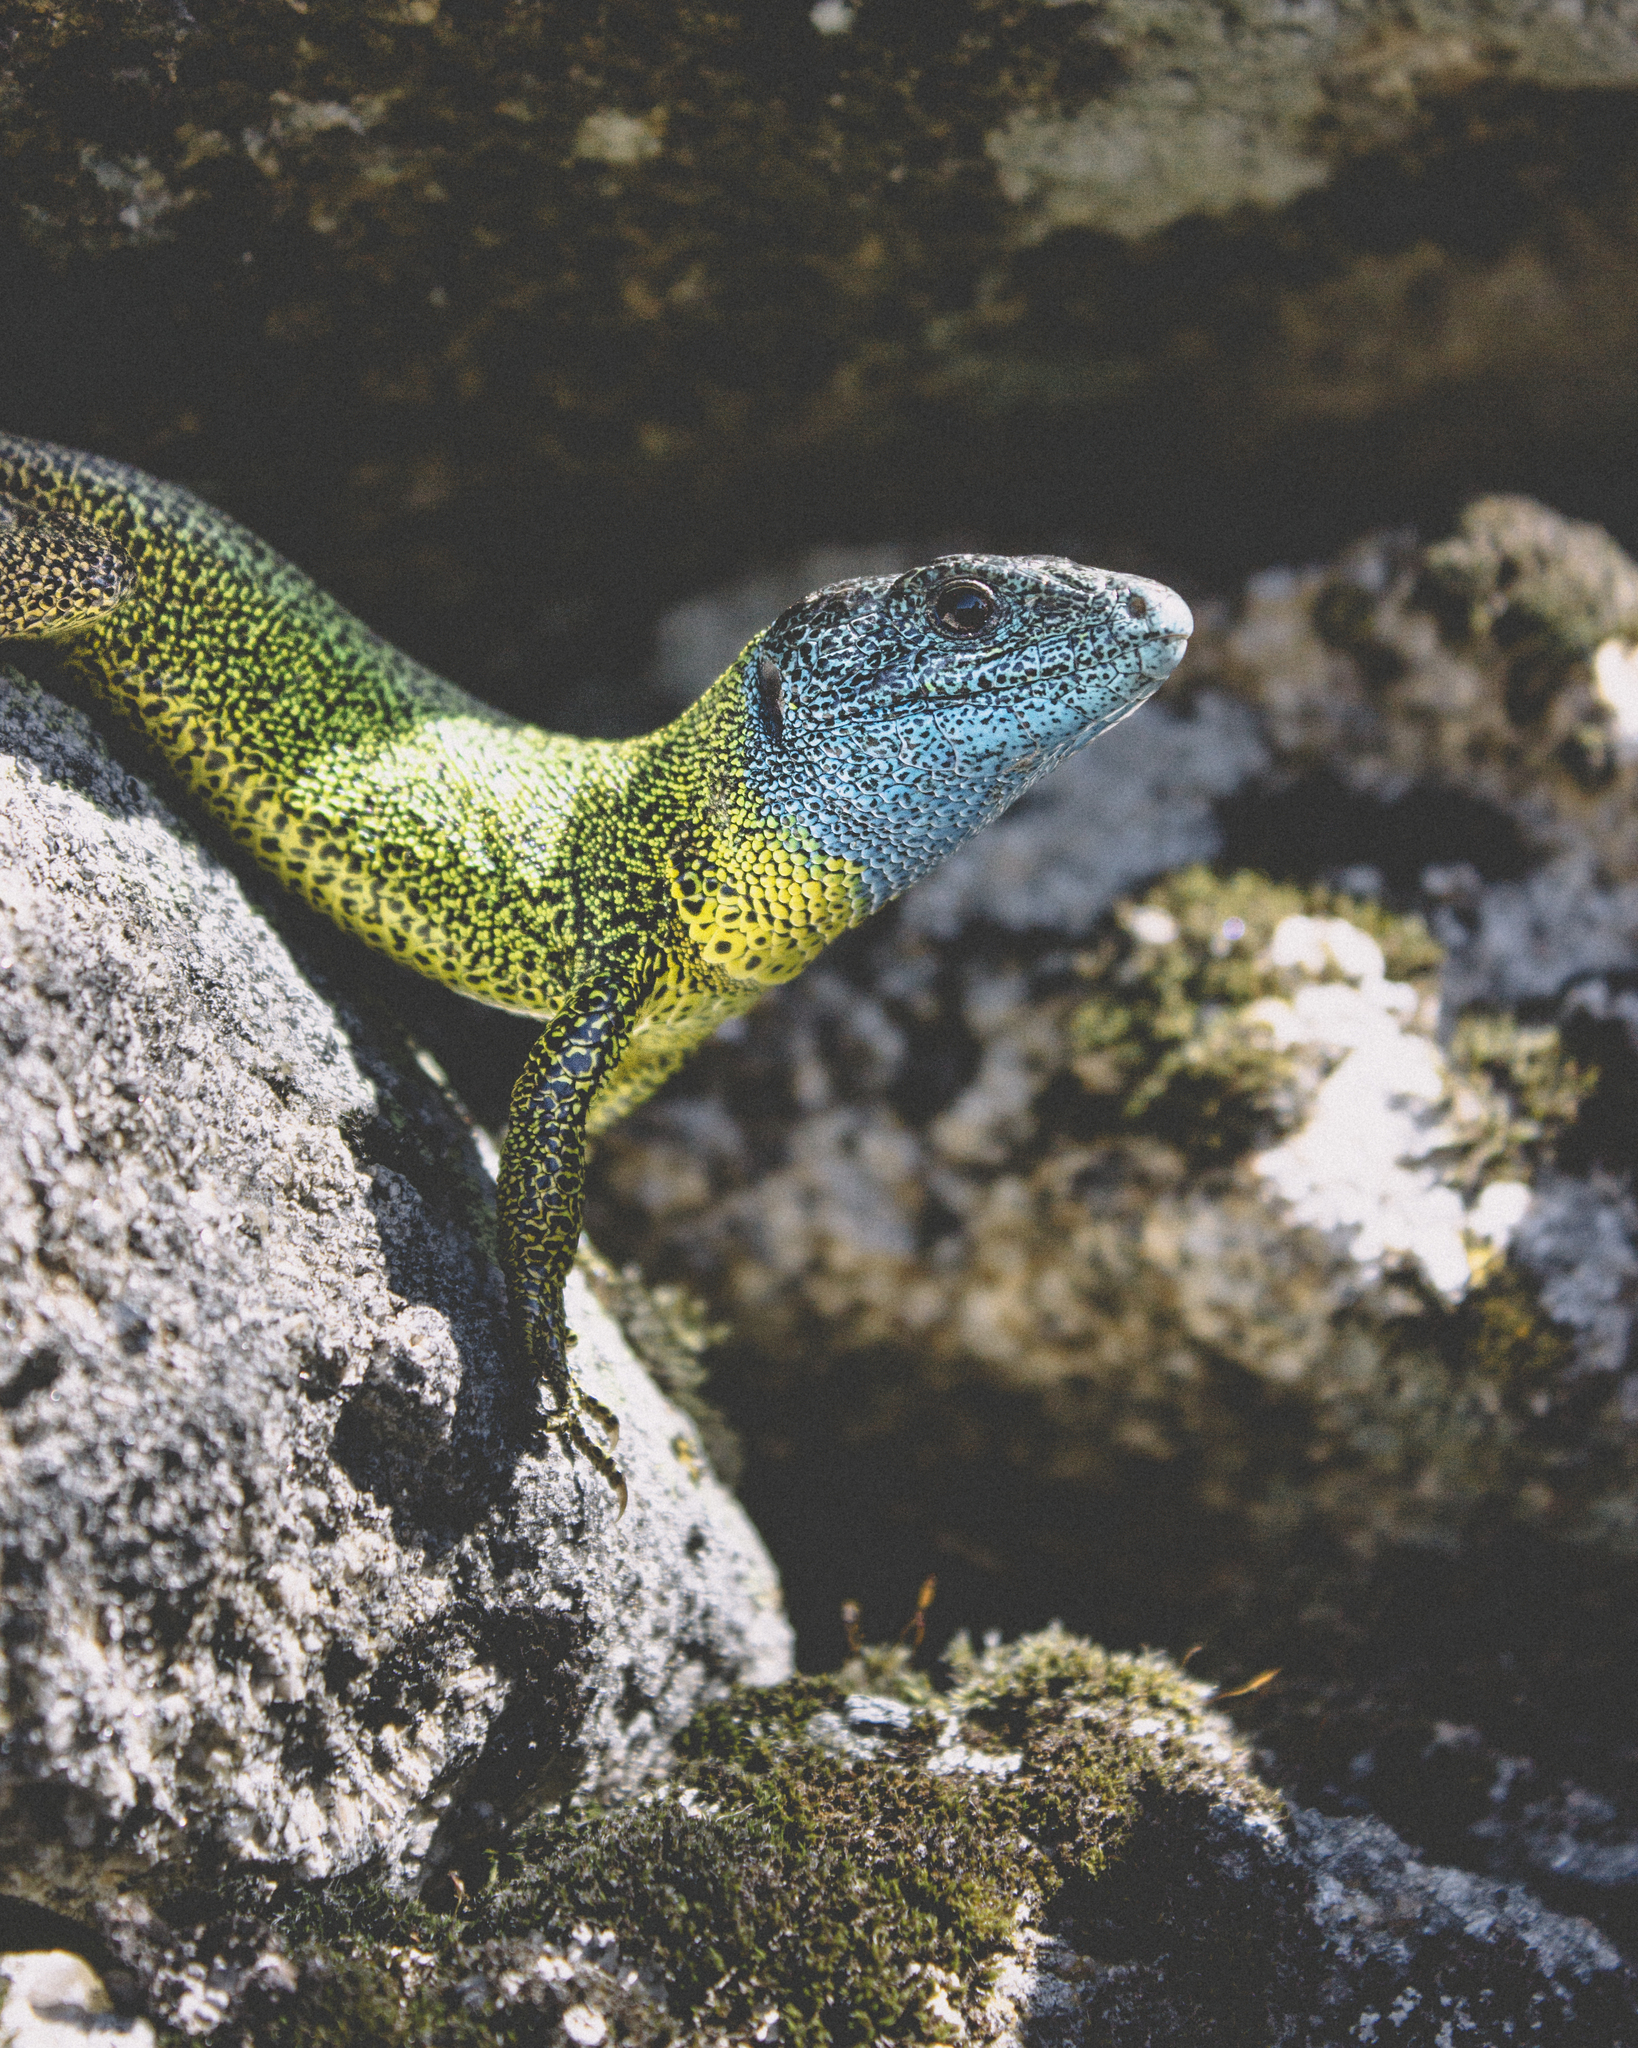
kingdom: Animalia
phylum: Chordata
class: Squamata
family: Lacertidae
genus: Lacerta
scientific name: Lacerta schreiberi
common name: Iberian emerald lizard
